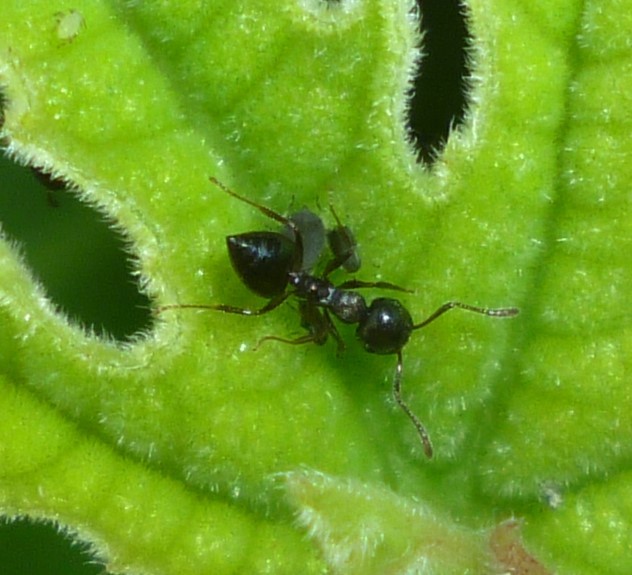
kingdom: Animalia
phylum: Arthropoda
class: Insecta
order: Hymenoptera
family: Formicidae
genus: Crematogaster
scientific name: Crematogaster
